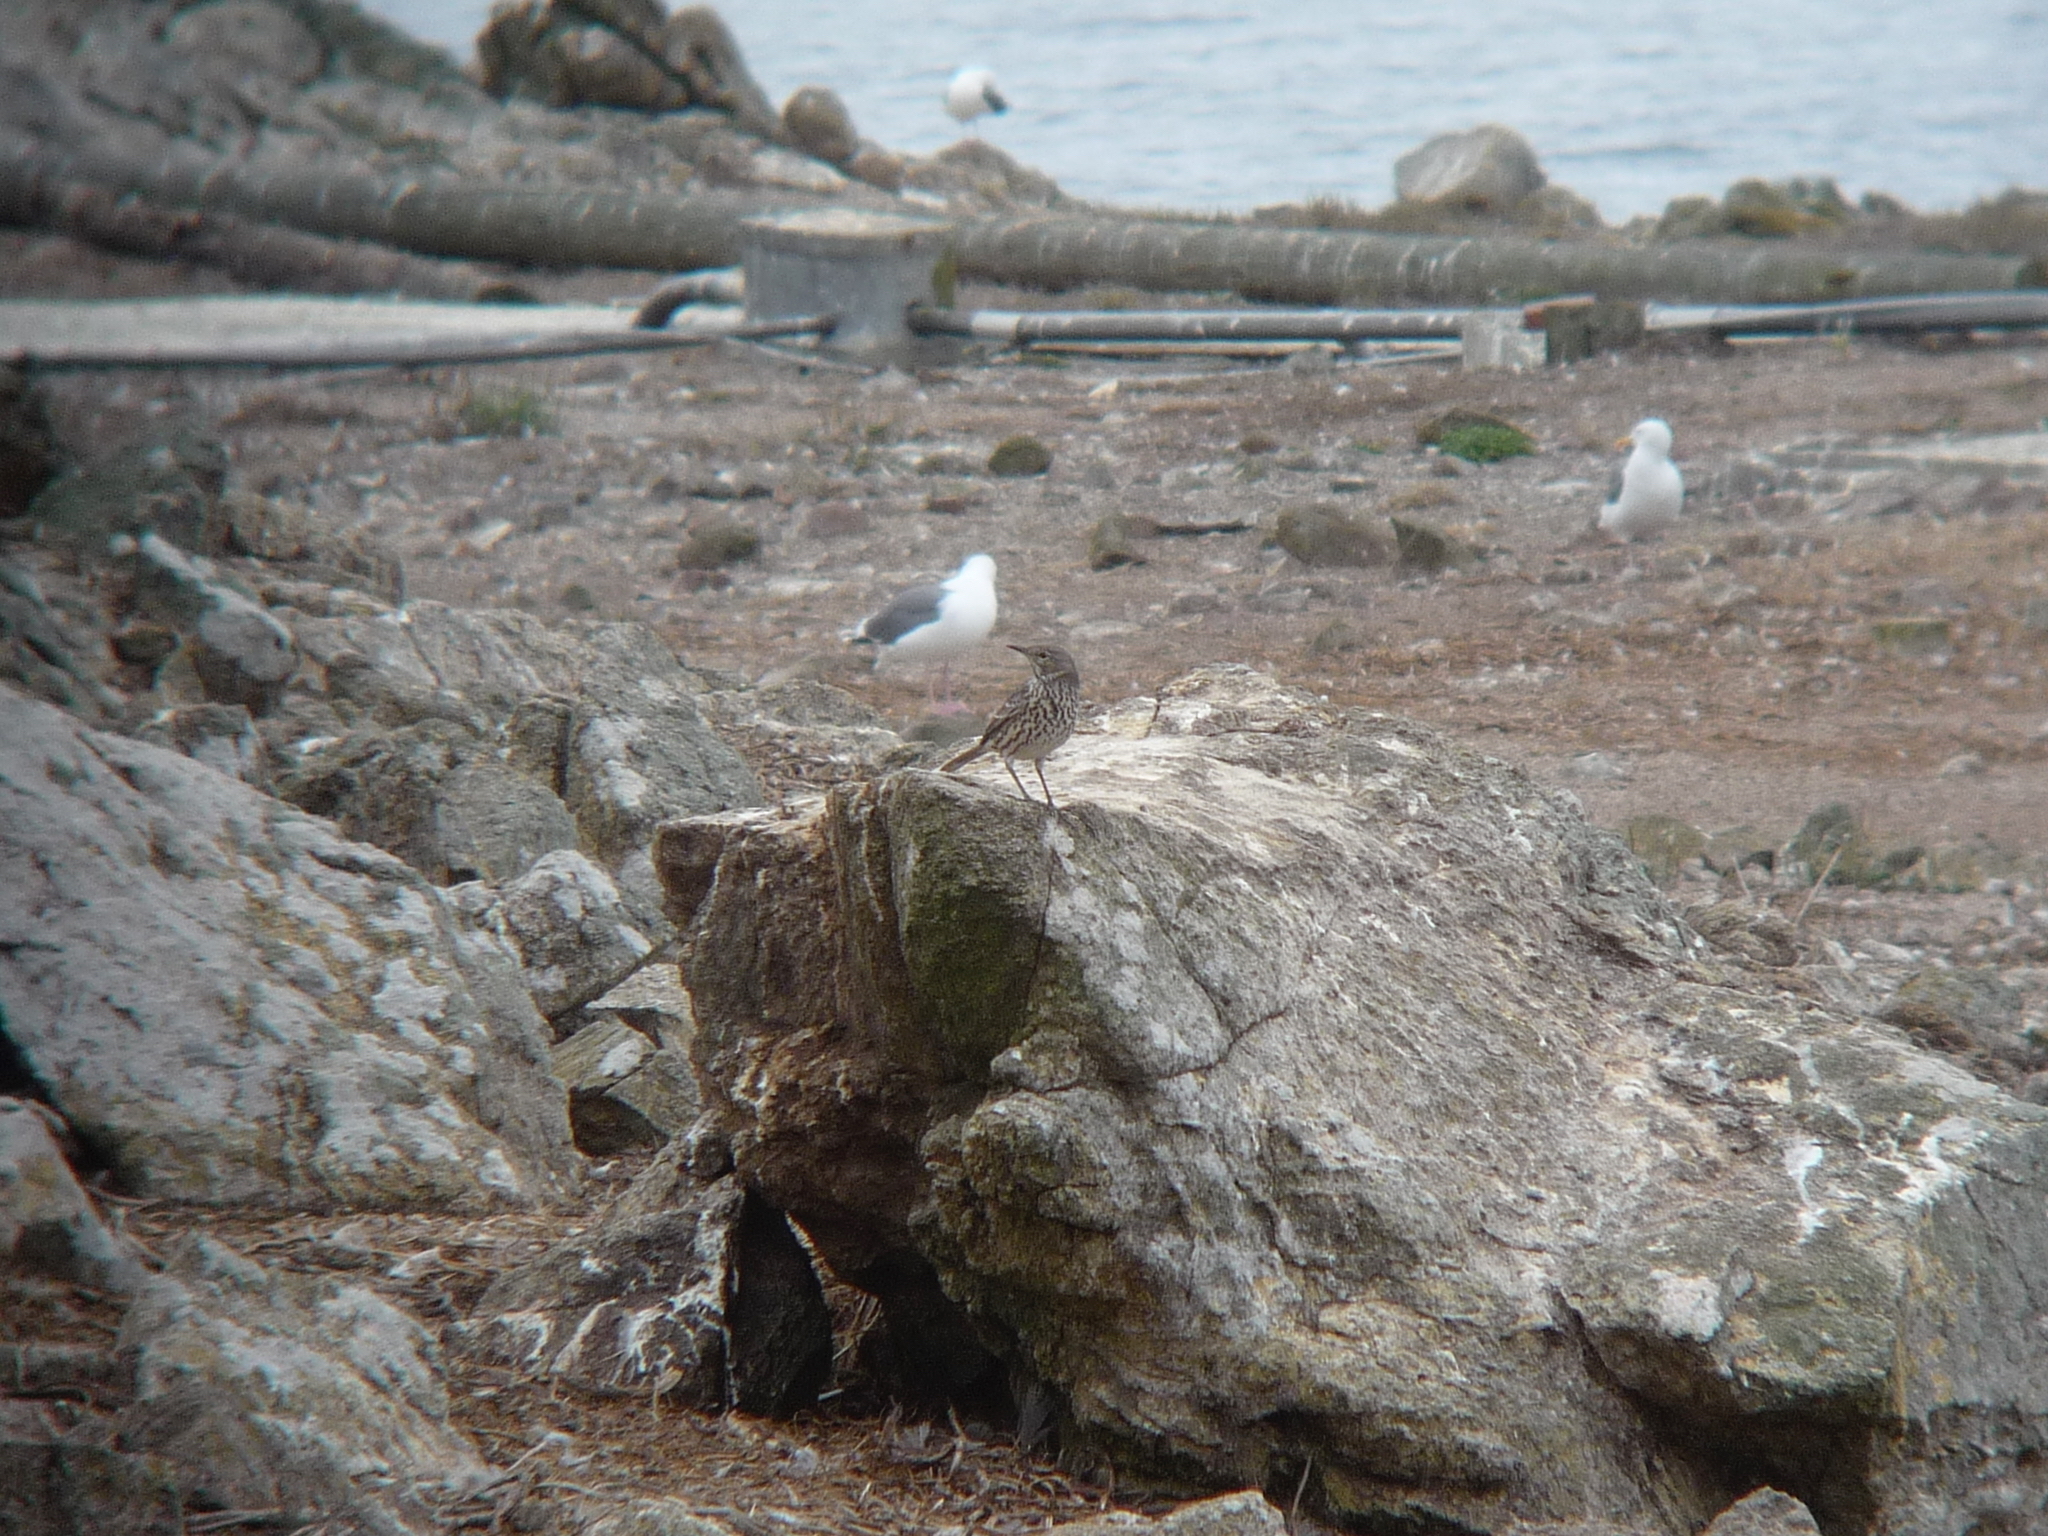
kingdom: Animalia
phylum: Chordata
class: Aves
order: Passeriformes
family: Mimidae
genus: Oreoscoptes
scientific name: Oreoscoptes montanus
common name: Sage thrasher
